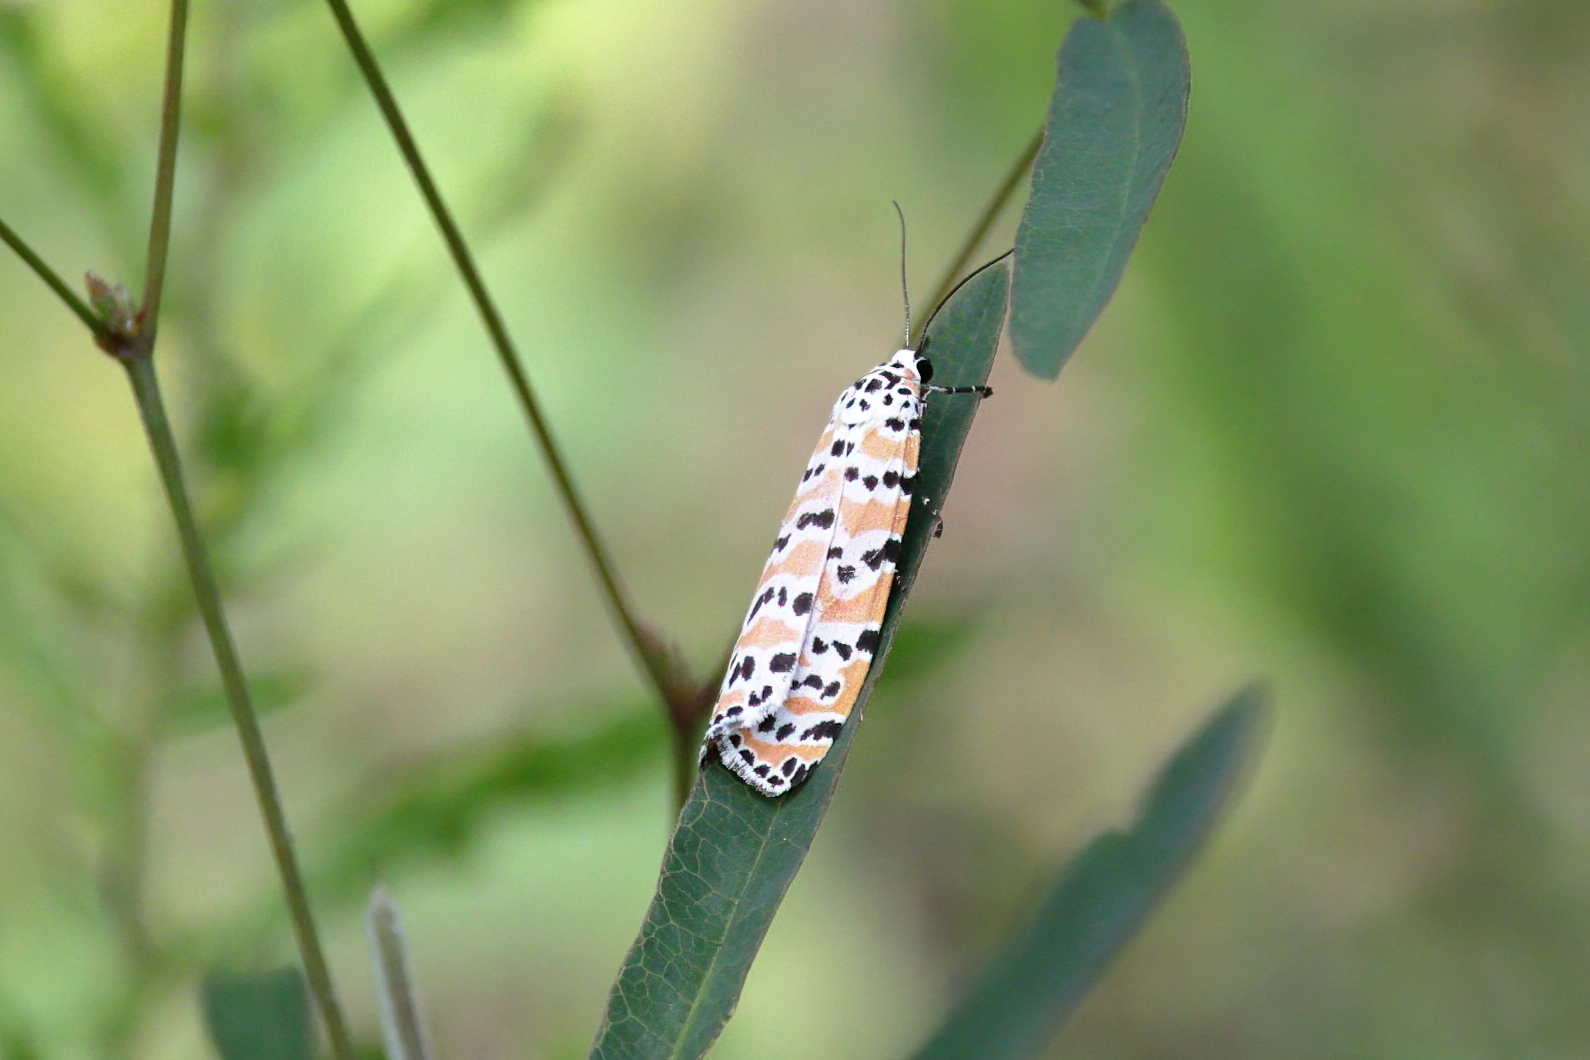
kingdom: Animalia
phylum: Arthropoda
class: Insecta
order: Lepidoptera
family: Erebidae
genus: Utetheisa
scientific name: Utetheisa ornatrix
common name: Beautiful utetheisa
